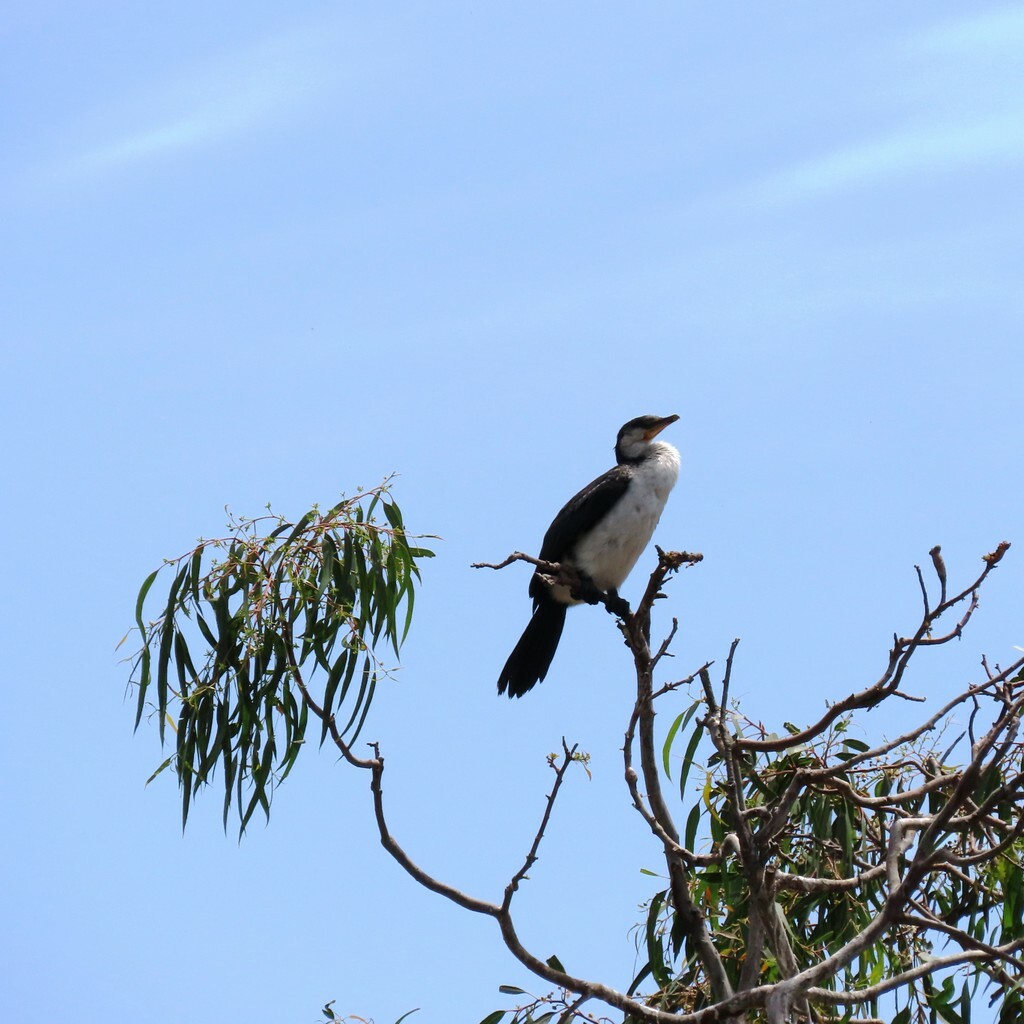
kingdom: Animalia
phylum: Chordata
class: Aves
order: Suliformes
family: Phalacrocoracidae
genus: Microcarbo
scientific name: Microcarbo melanoleucos
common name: Little pied cormorant
